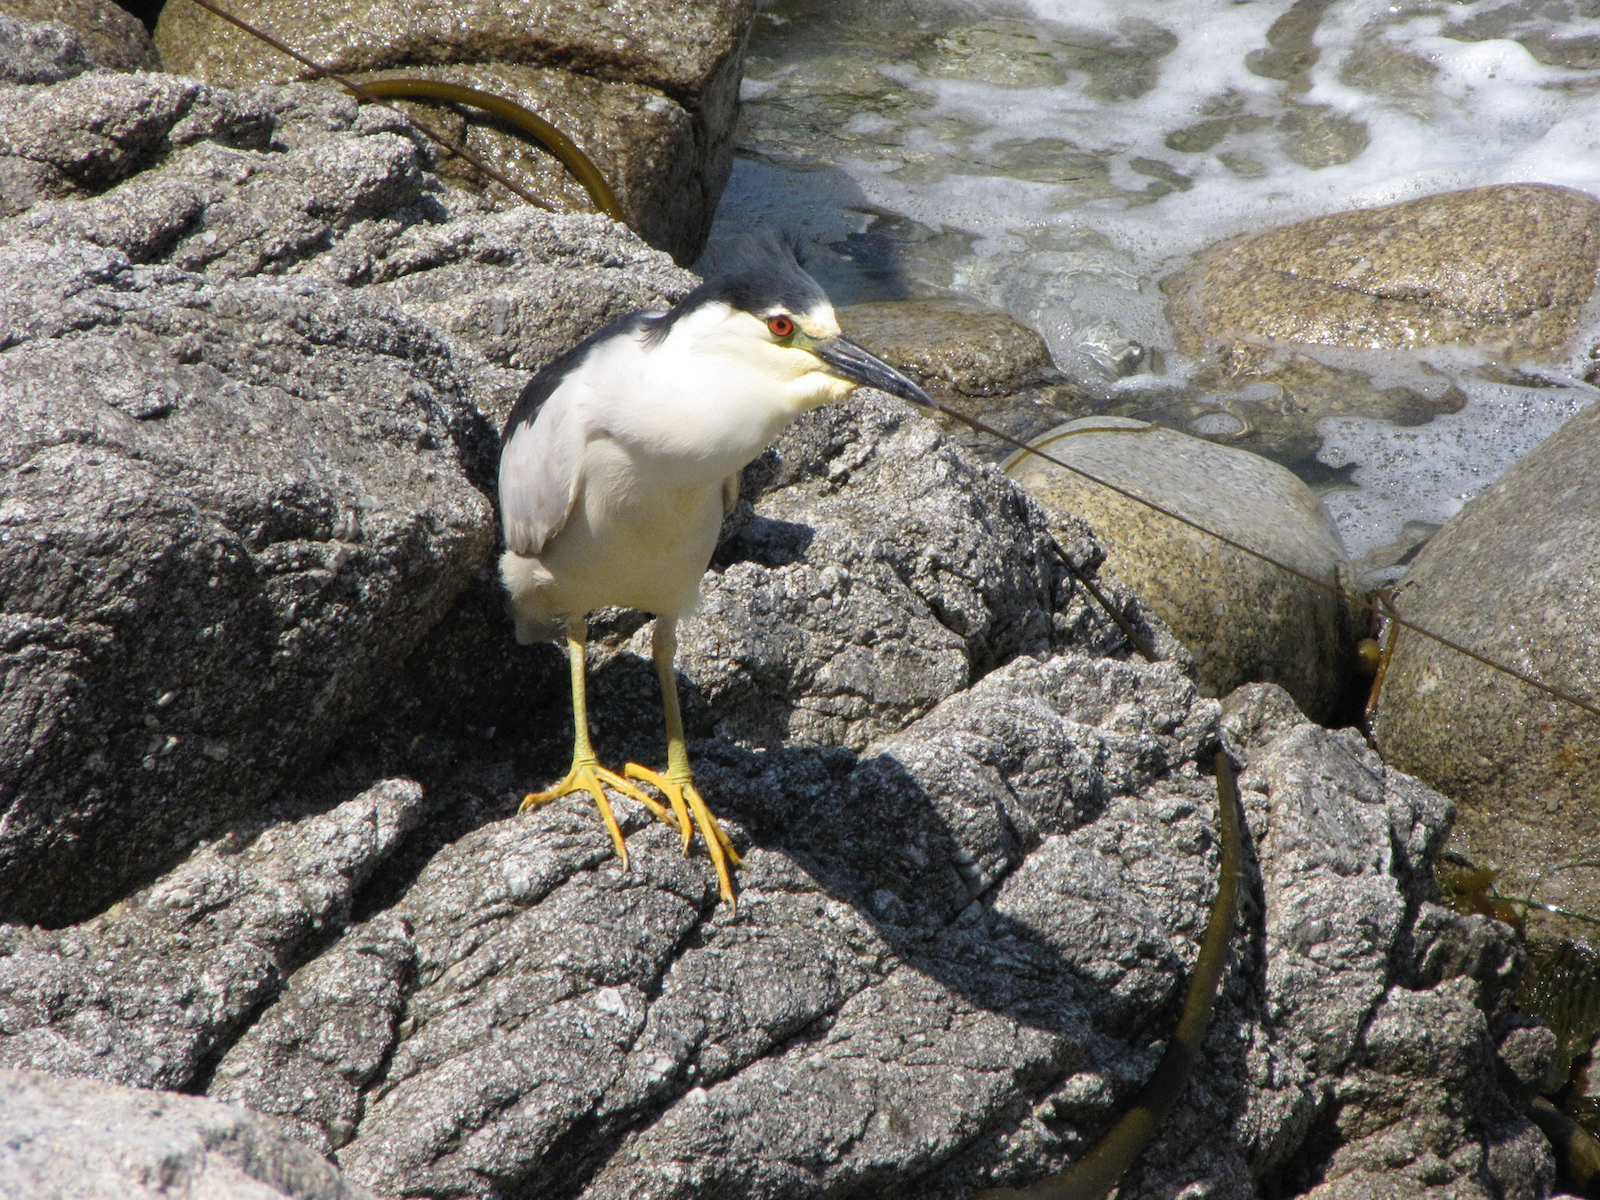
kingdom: Animalia
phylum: Chordata
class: Aves
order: Pelecaniformes
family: Ardeidae
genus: Nycticorax
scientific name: Nycticorax nycticorax
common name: Black-crowned night heron
